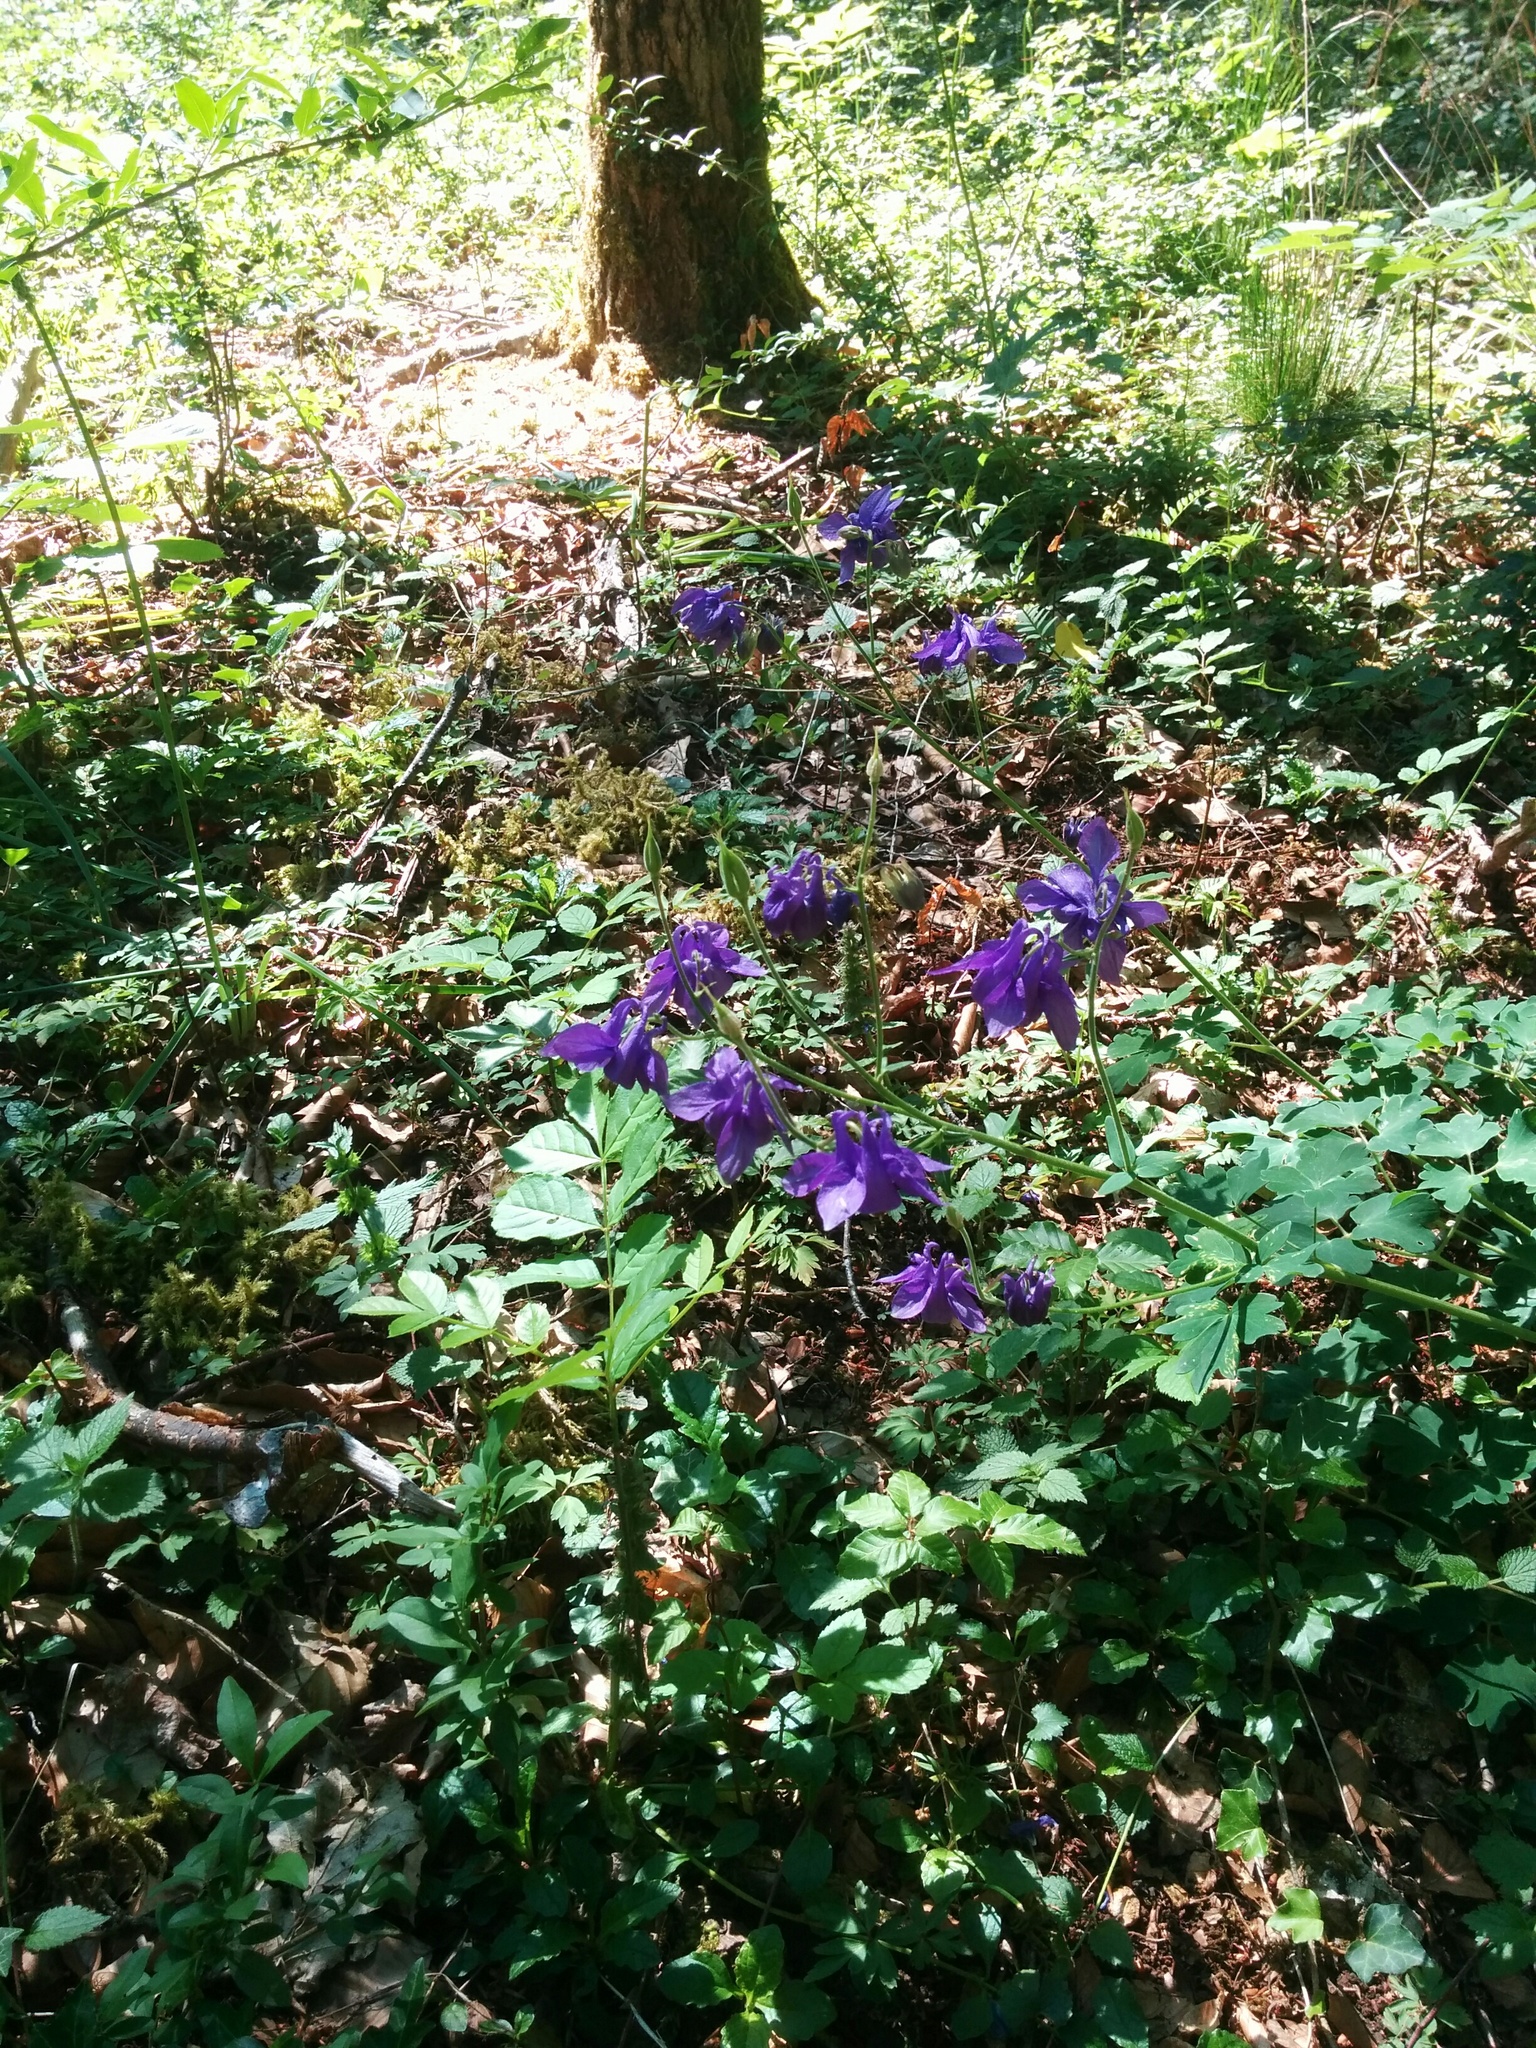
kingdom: Plantae
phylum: Tracheophyta
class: Magnoliopsida
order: Ranunculales
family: Ranunculaceae
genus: Aquilegia
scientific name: Aquilegia vulgaris
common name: Columbine
